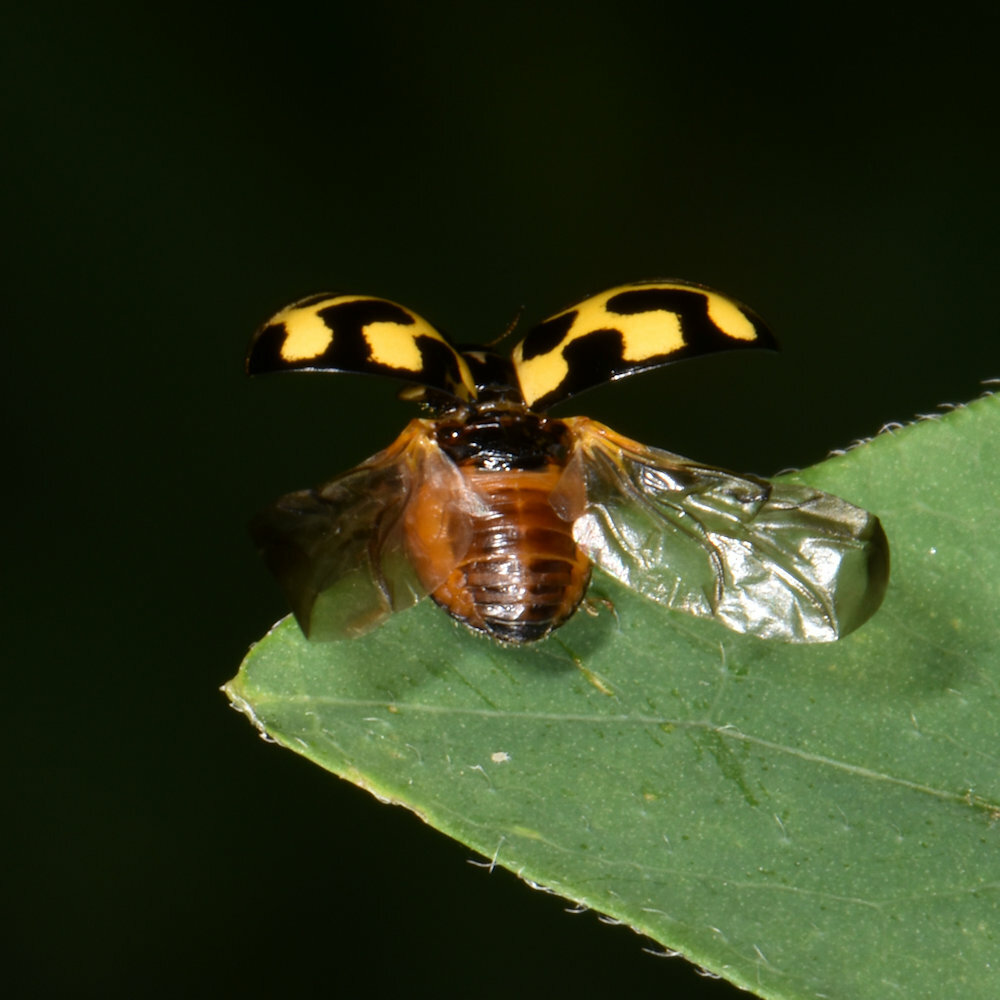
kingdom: Animalia
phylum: Arthropoda
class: Insecta
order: Coleoptera
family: Coccinellidae
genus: Propylaea
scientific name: Propylaea quatuordecimpunctata
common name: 14-spotted ladybird beetle
